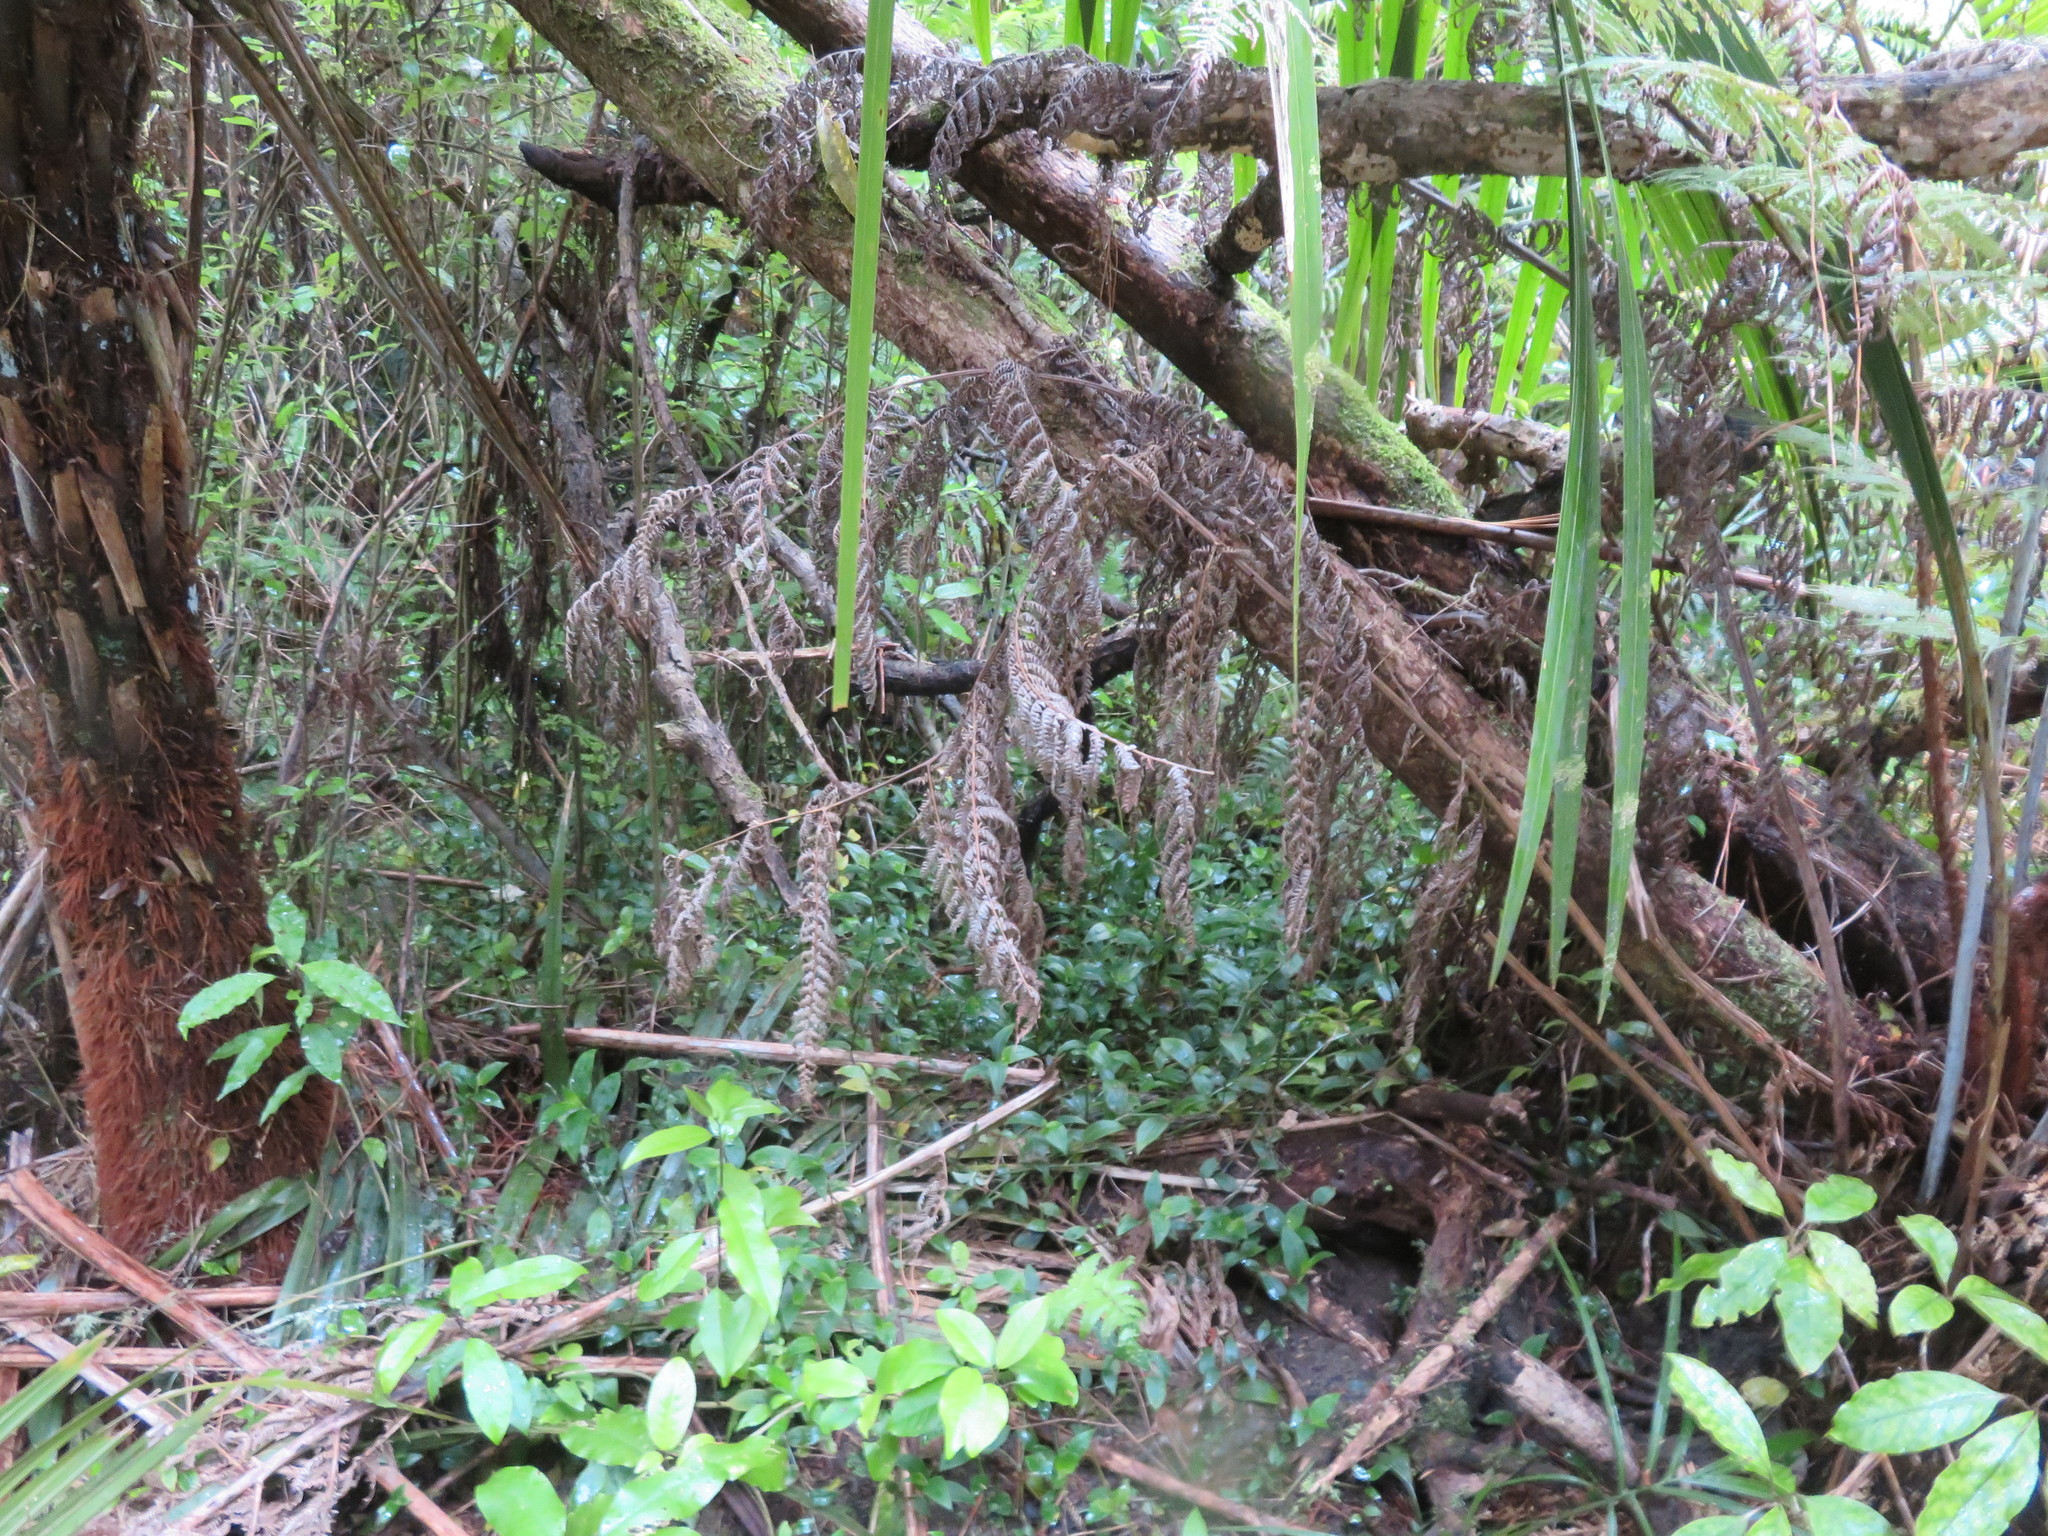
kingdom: Plantae
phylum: Tracheophyta
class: Liliopsida
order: Commelinales
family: Commelinaceae
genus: Tradescantia
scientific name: Tradescantia fluminensis
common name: Wandering-jew
